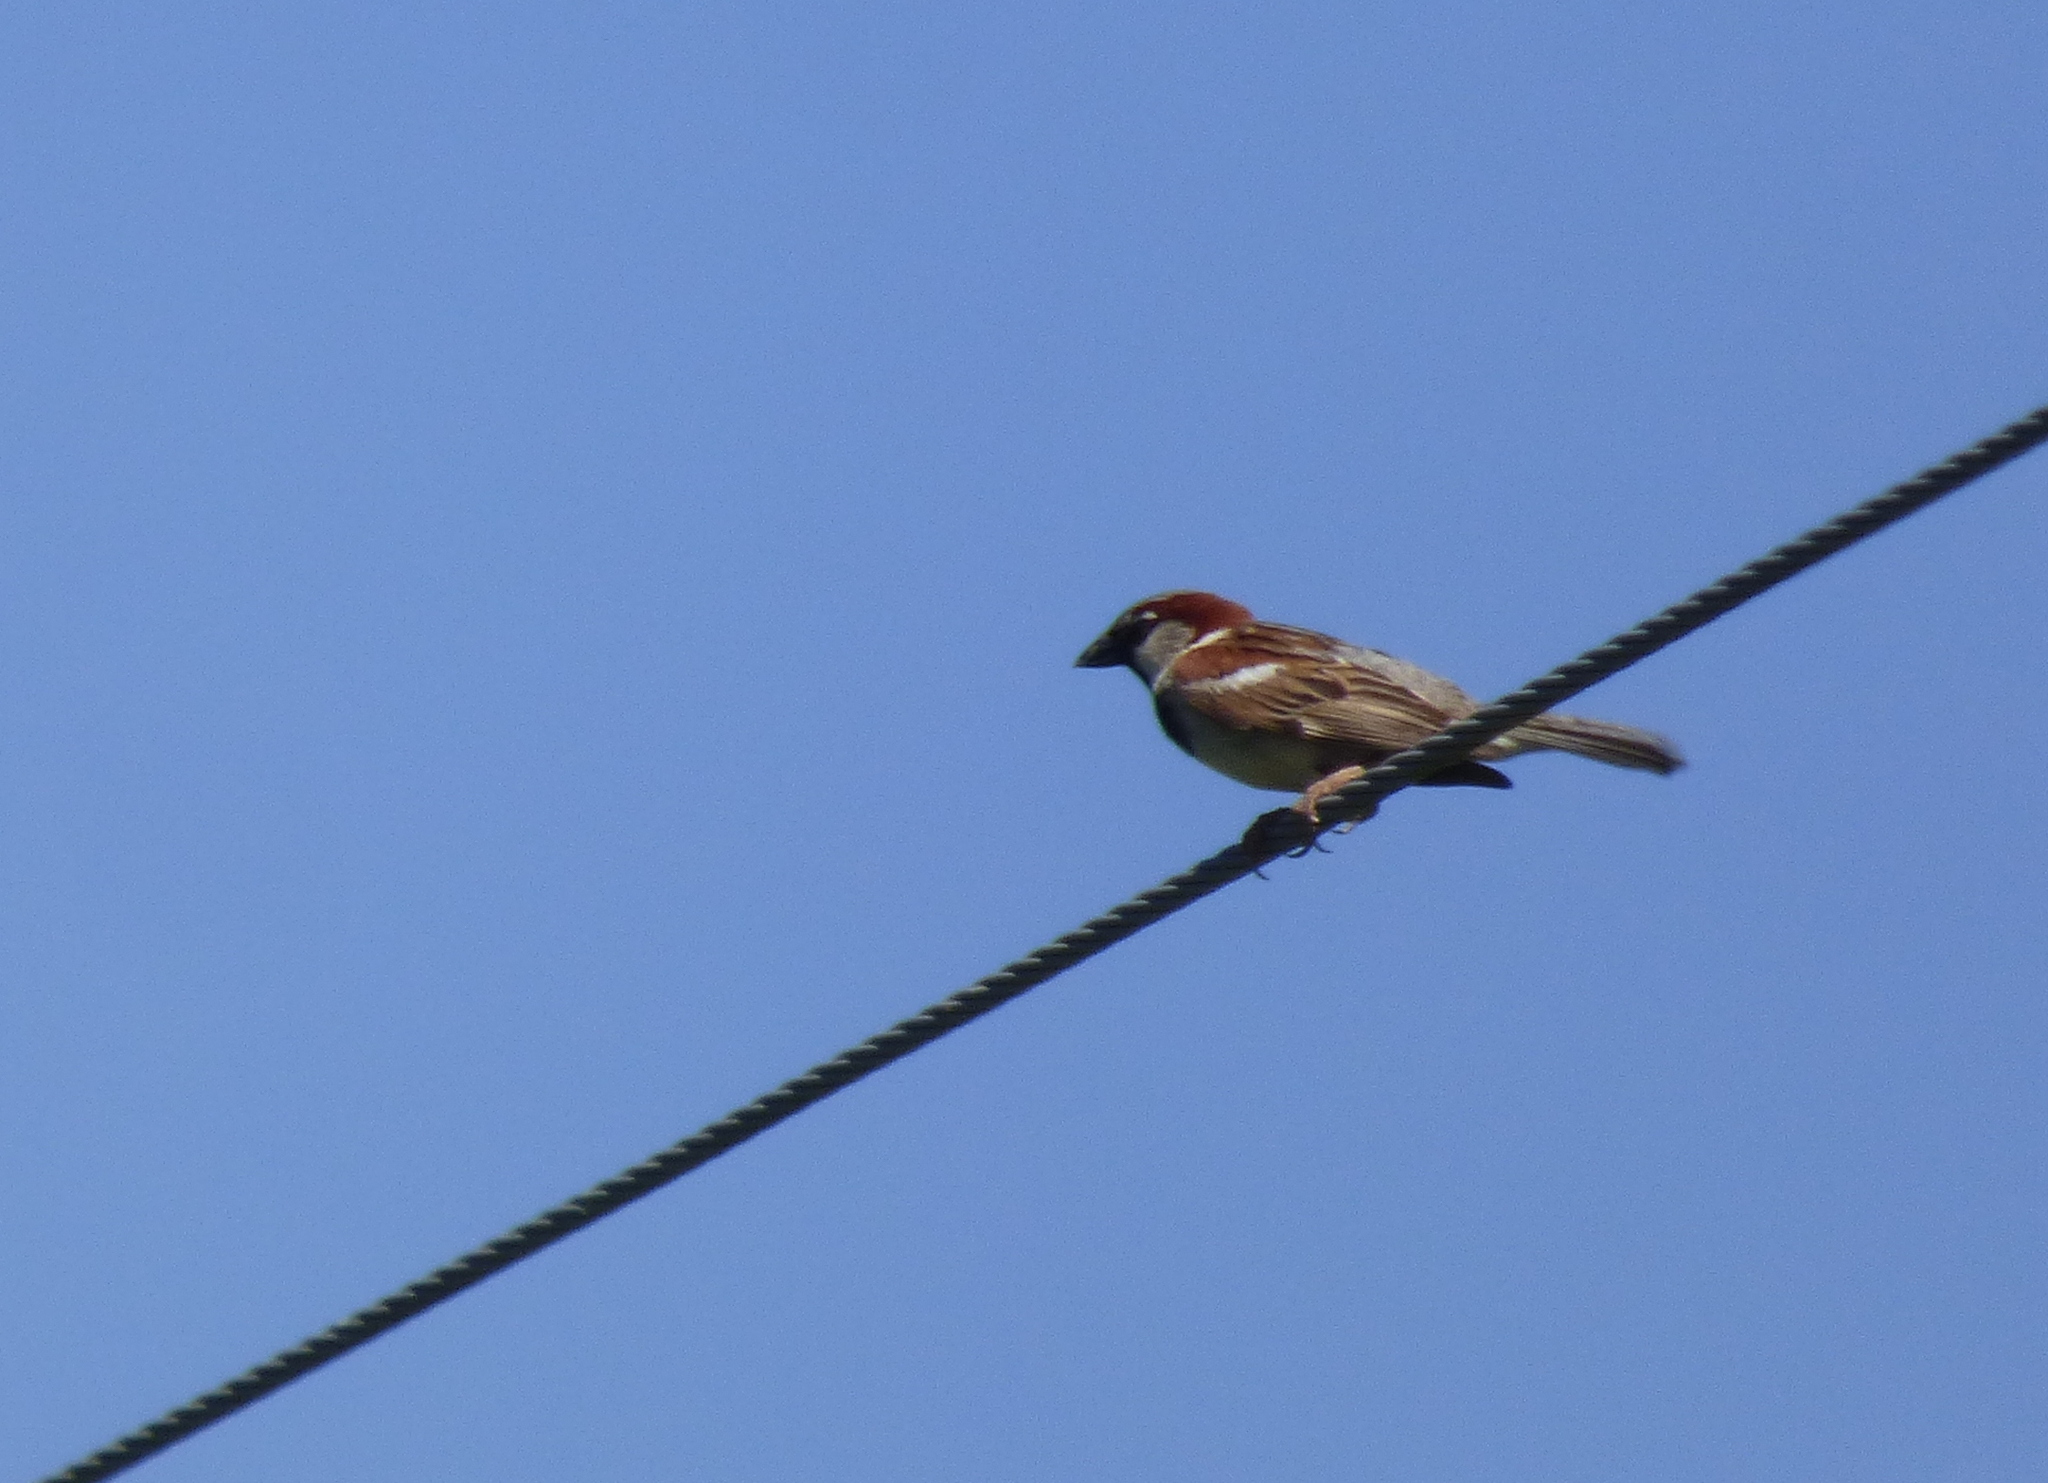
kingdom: Animalia
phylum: Chordata
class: Aves
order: Passeriformes
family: Passeridae
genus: Passer
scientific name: Passer domesticus
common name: House sparrow
